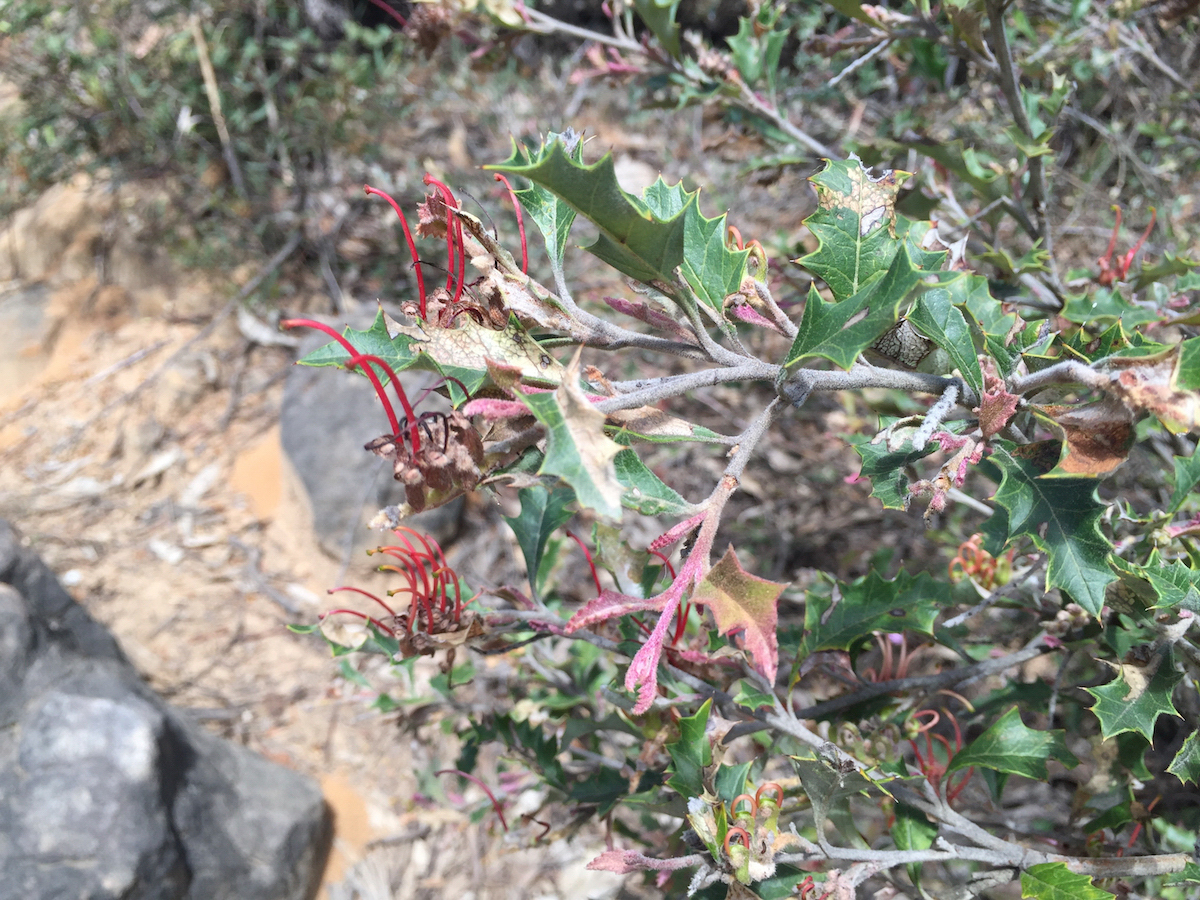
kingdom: Plantae
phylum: Tracheophyta
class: Magnoliopsida
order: Proteales
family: Proteaceae
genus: Grevillea
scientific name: Grevillea aquifolium
